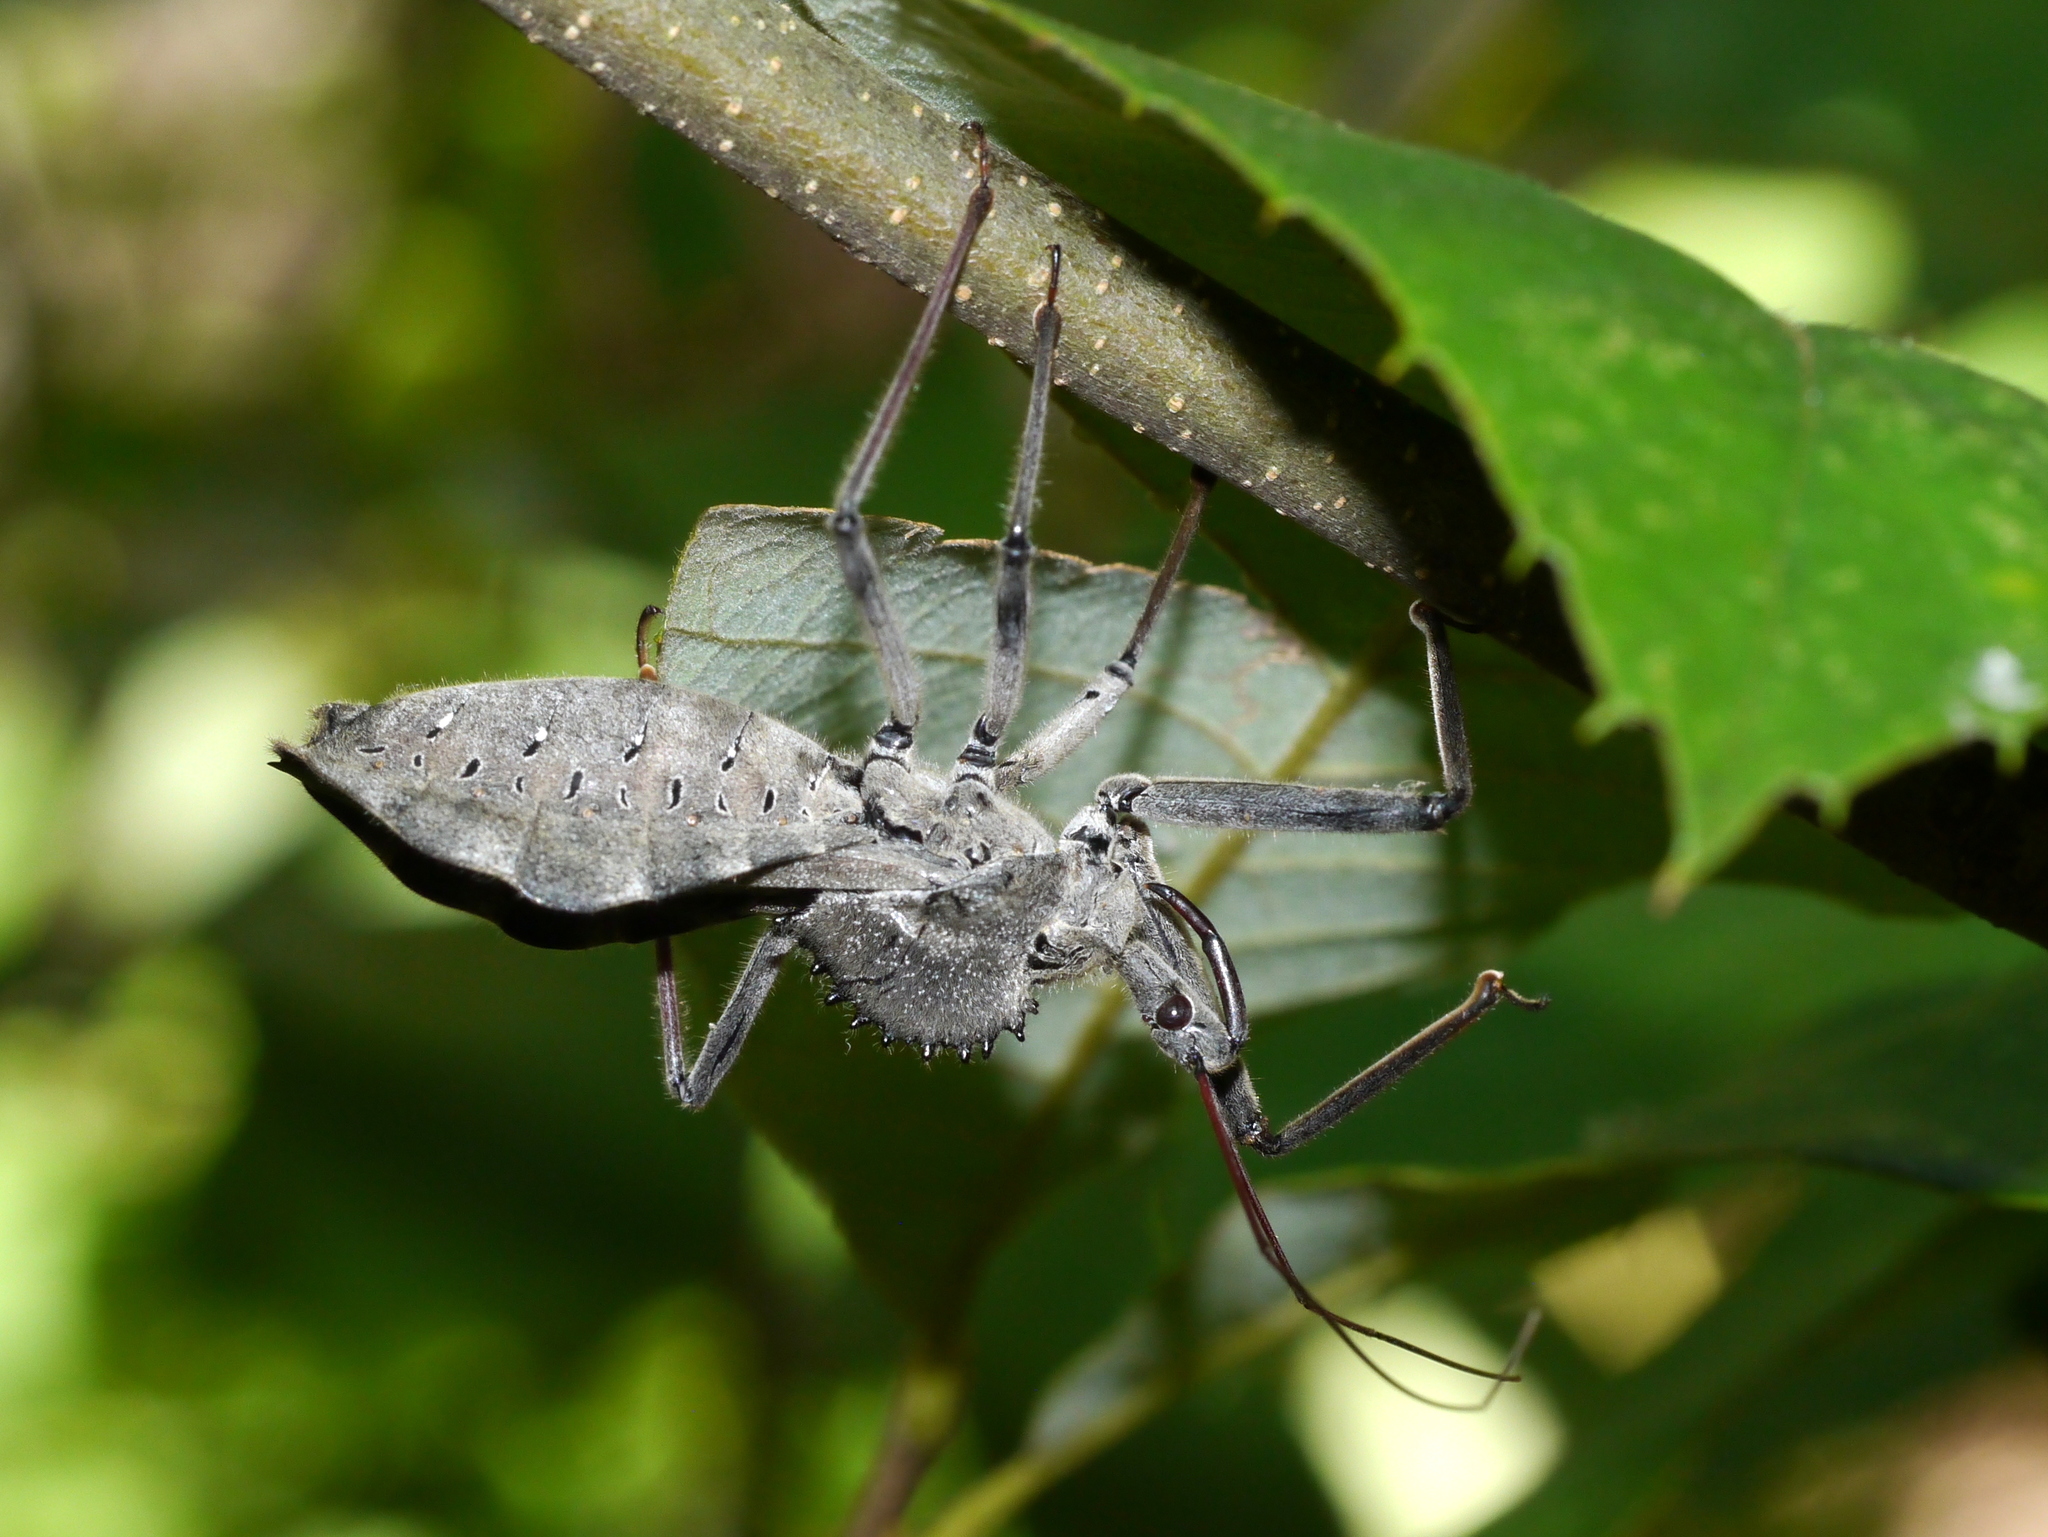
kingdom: Animalia
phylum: Arthropoda
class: Insecta
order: Hemiptera
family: Reduviidae
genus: Arilus
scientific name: Arilus cristatus
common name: North american wheel bug
